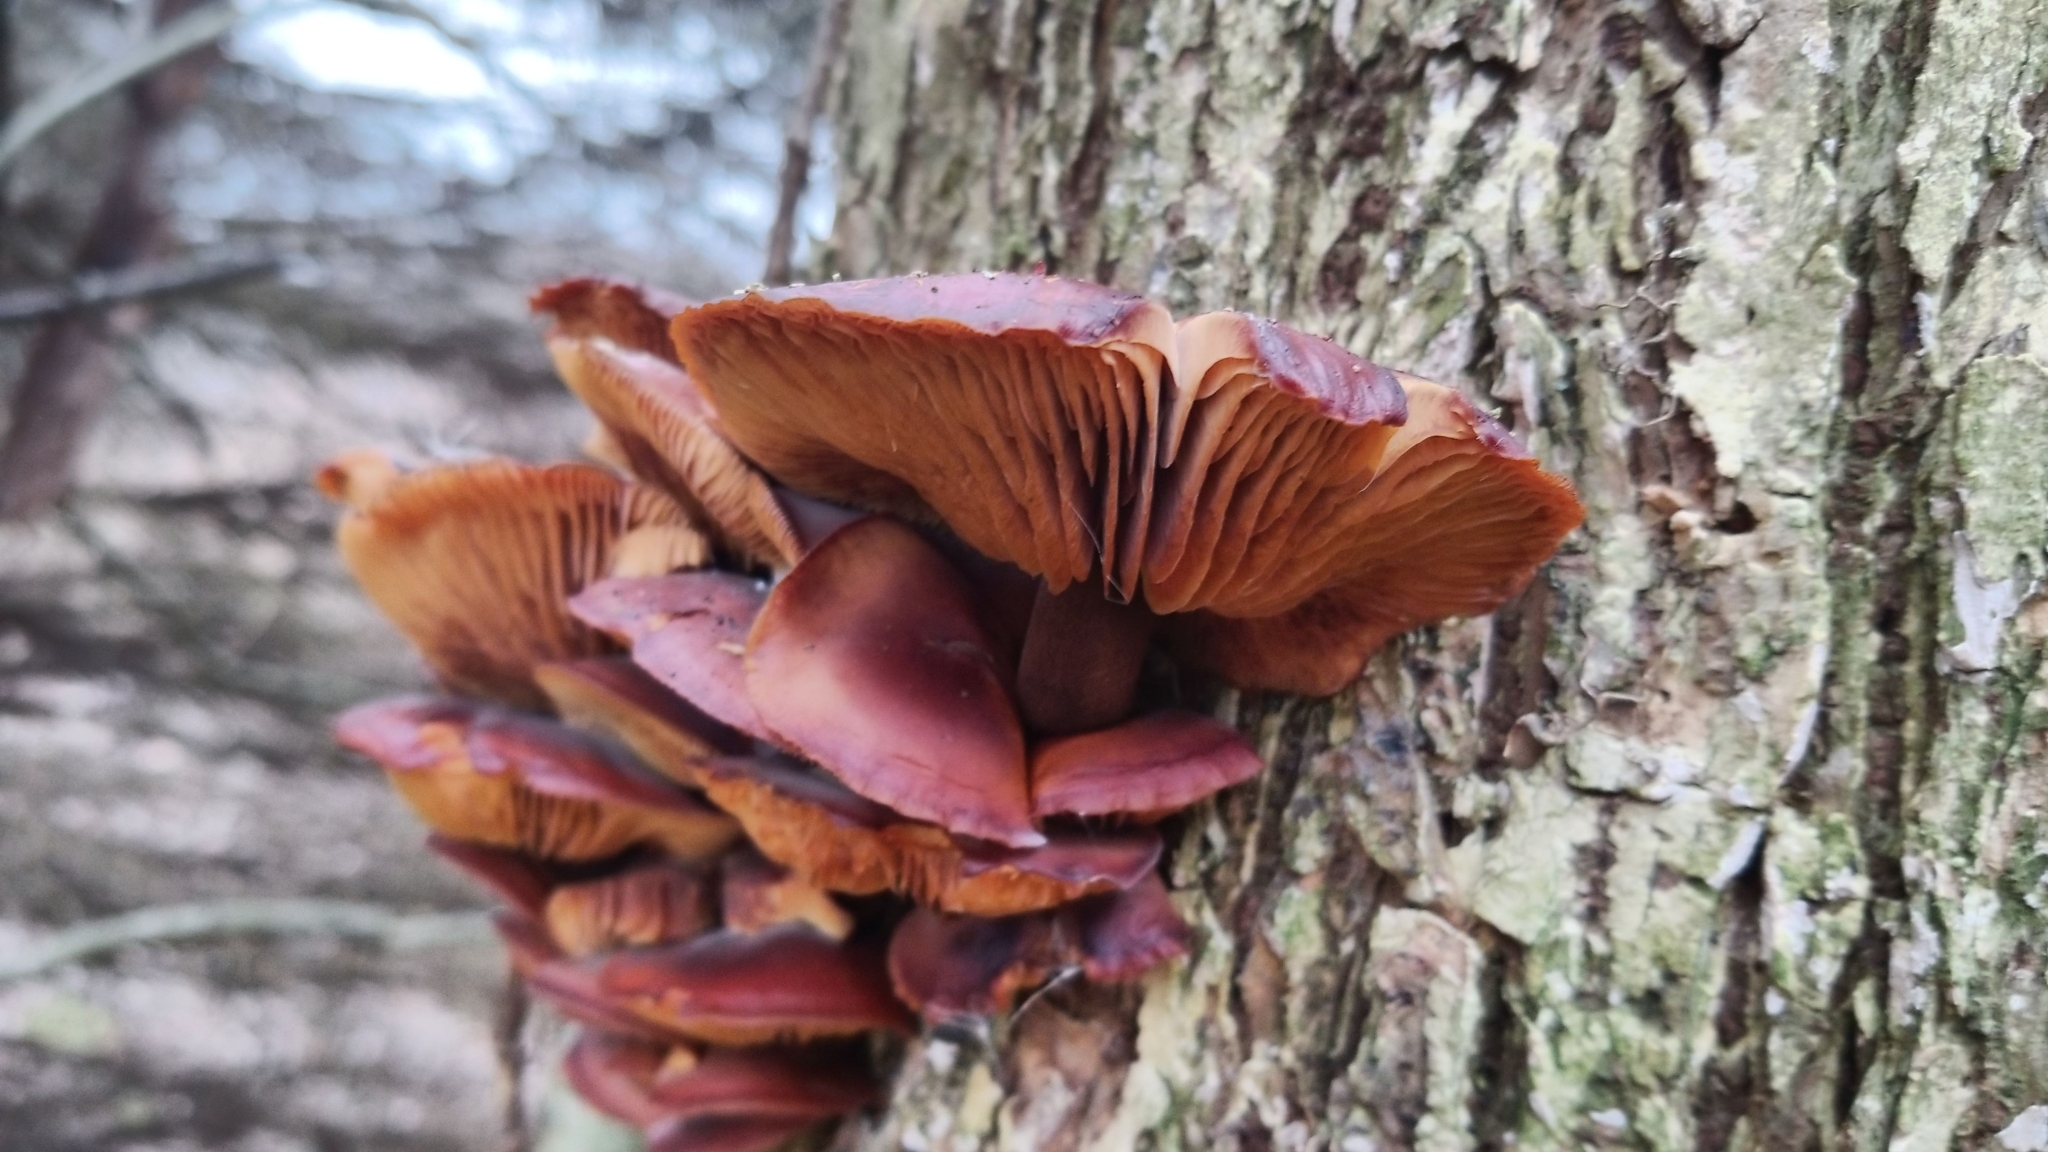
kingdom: Fungi
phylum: Basidiomycota
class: Agaricomycetes
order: Agaricales
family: Physalacriaceae
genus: Flammulina
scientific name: Flammulina velutipes
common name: Velvet shank
